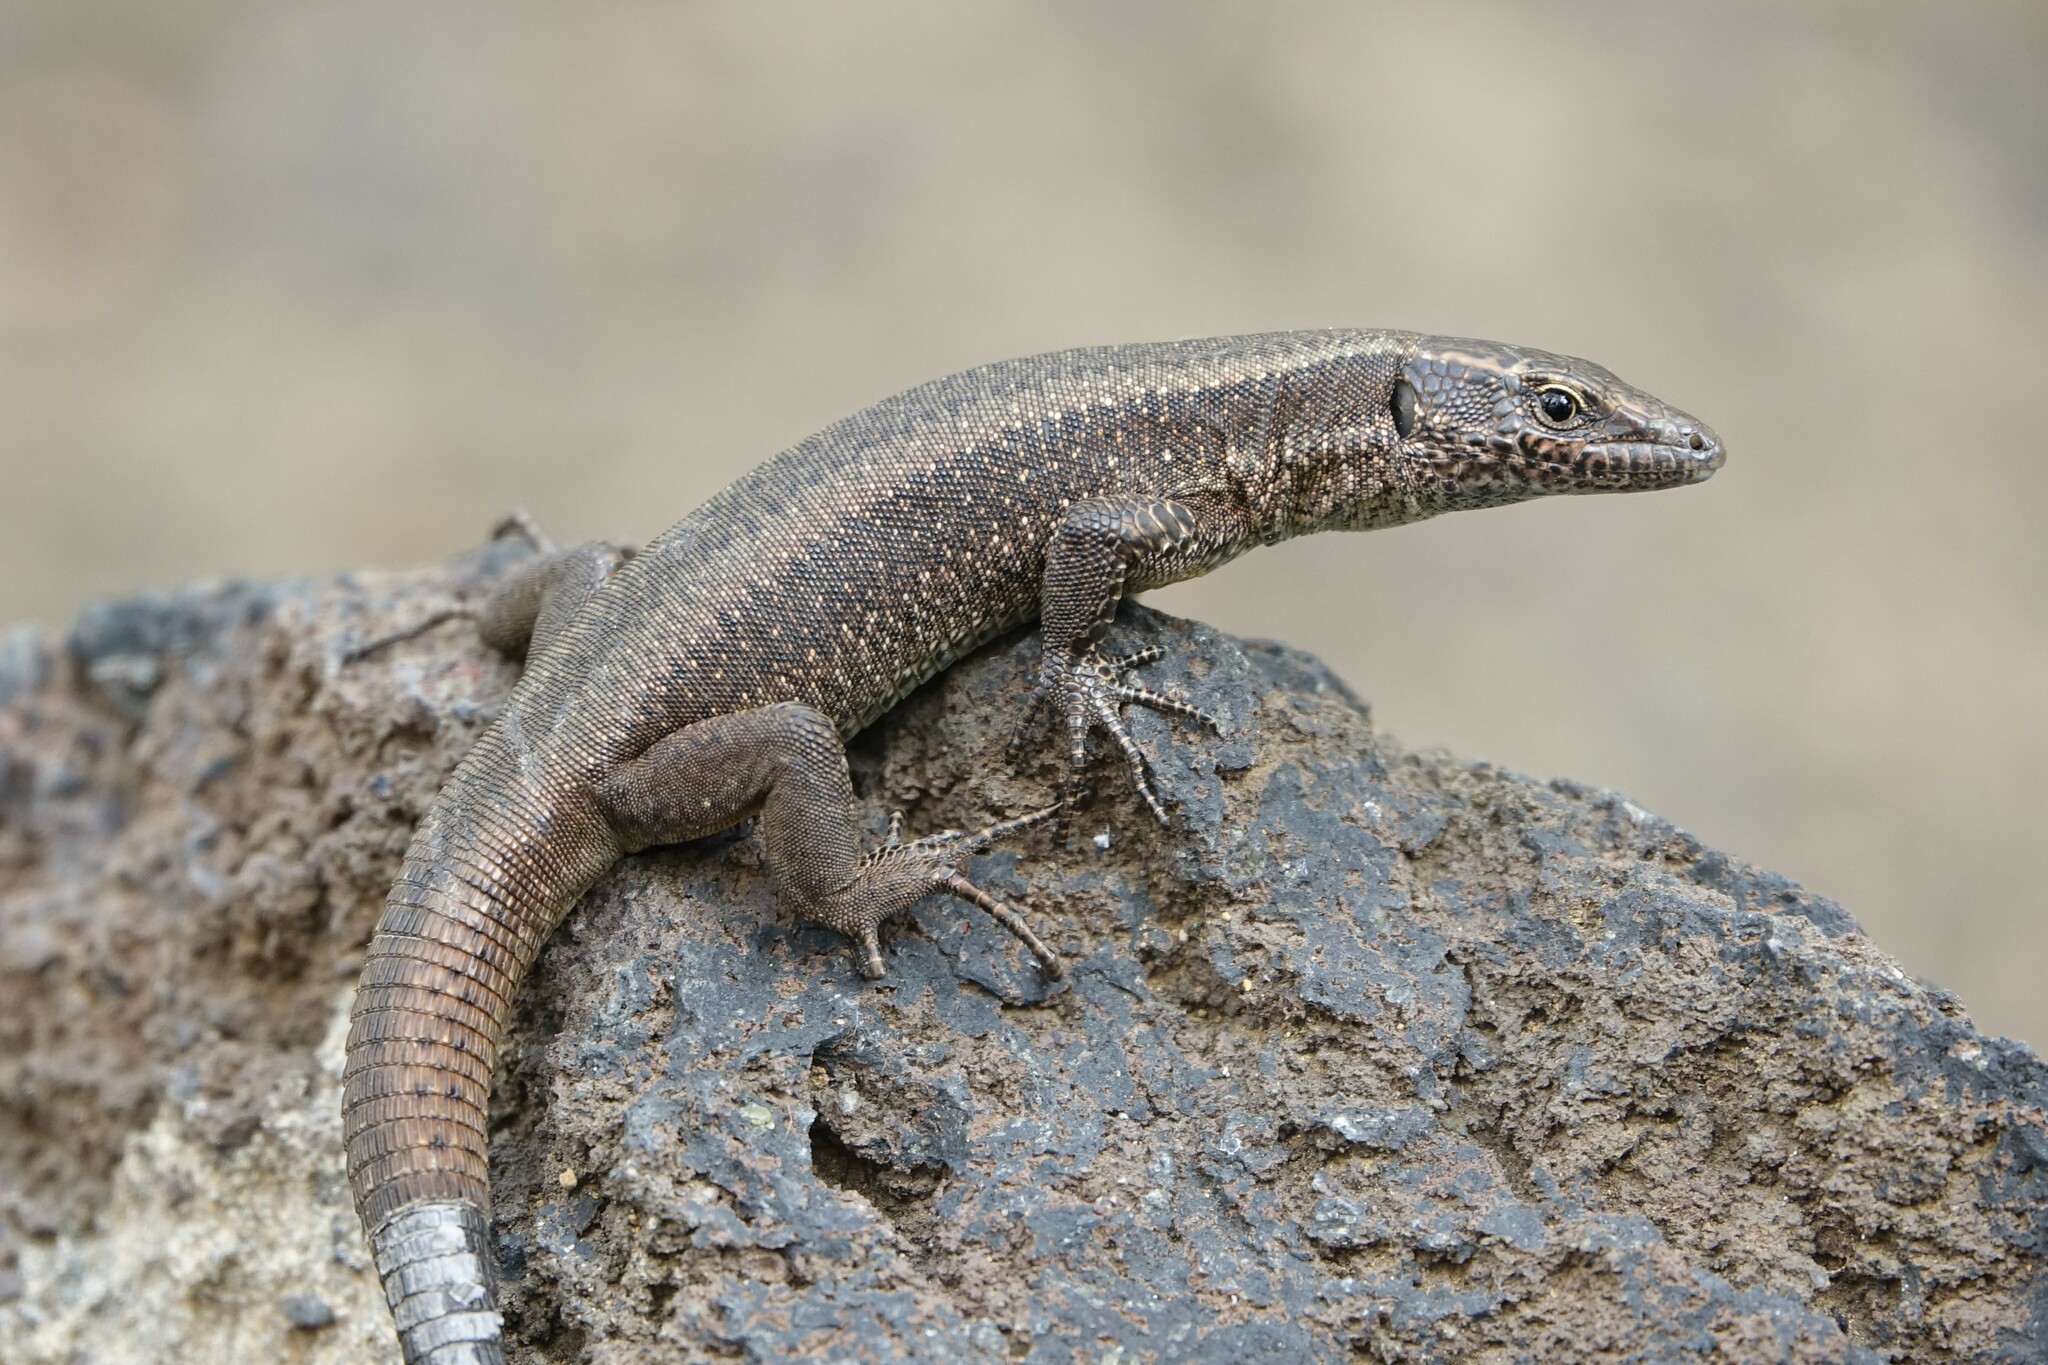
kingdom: Animalia
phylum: Chordata
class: Squamata
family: Lacertidae
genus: Teira
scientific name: Teira dugesii
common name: Madeira lizard
